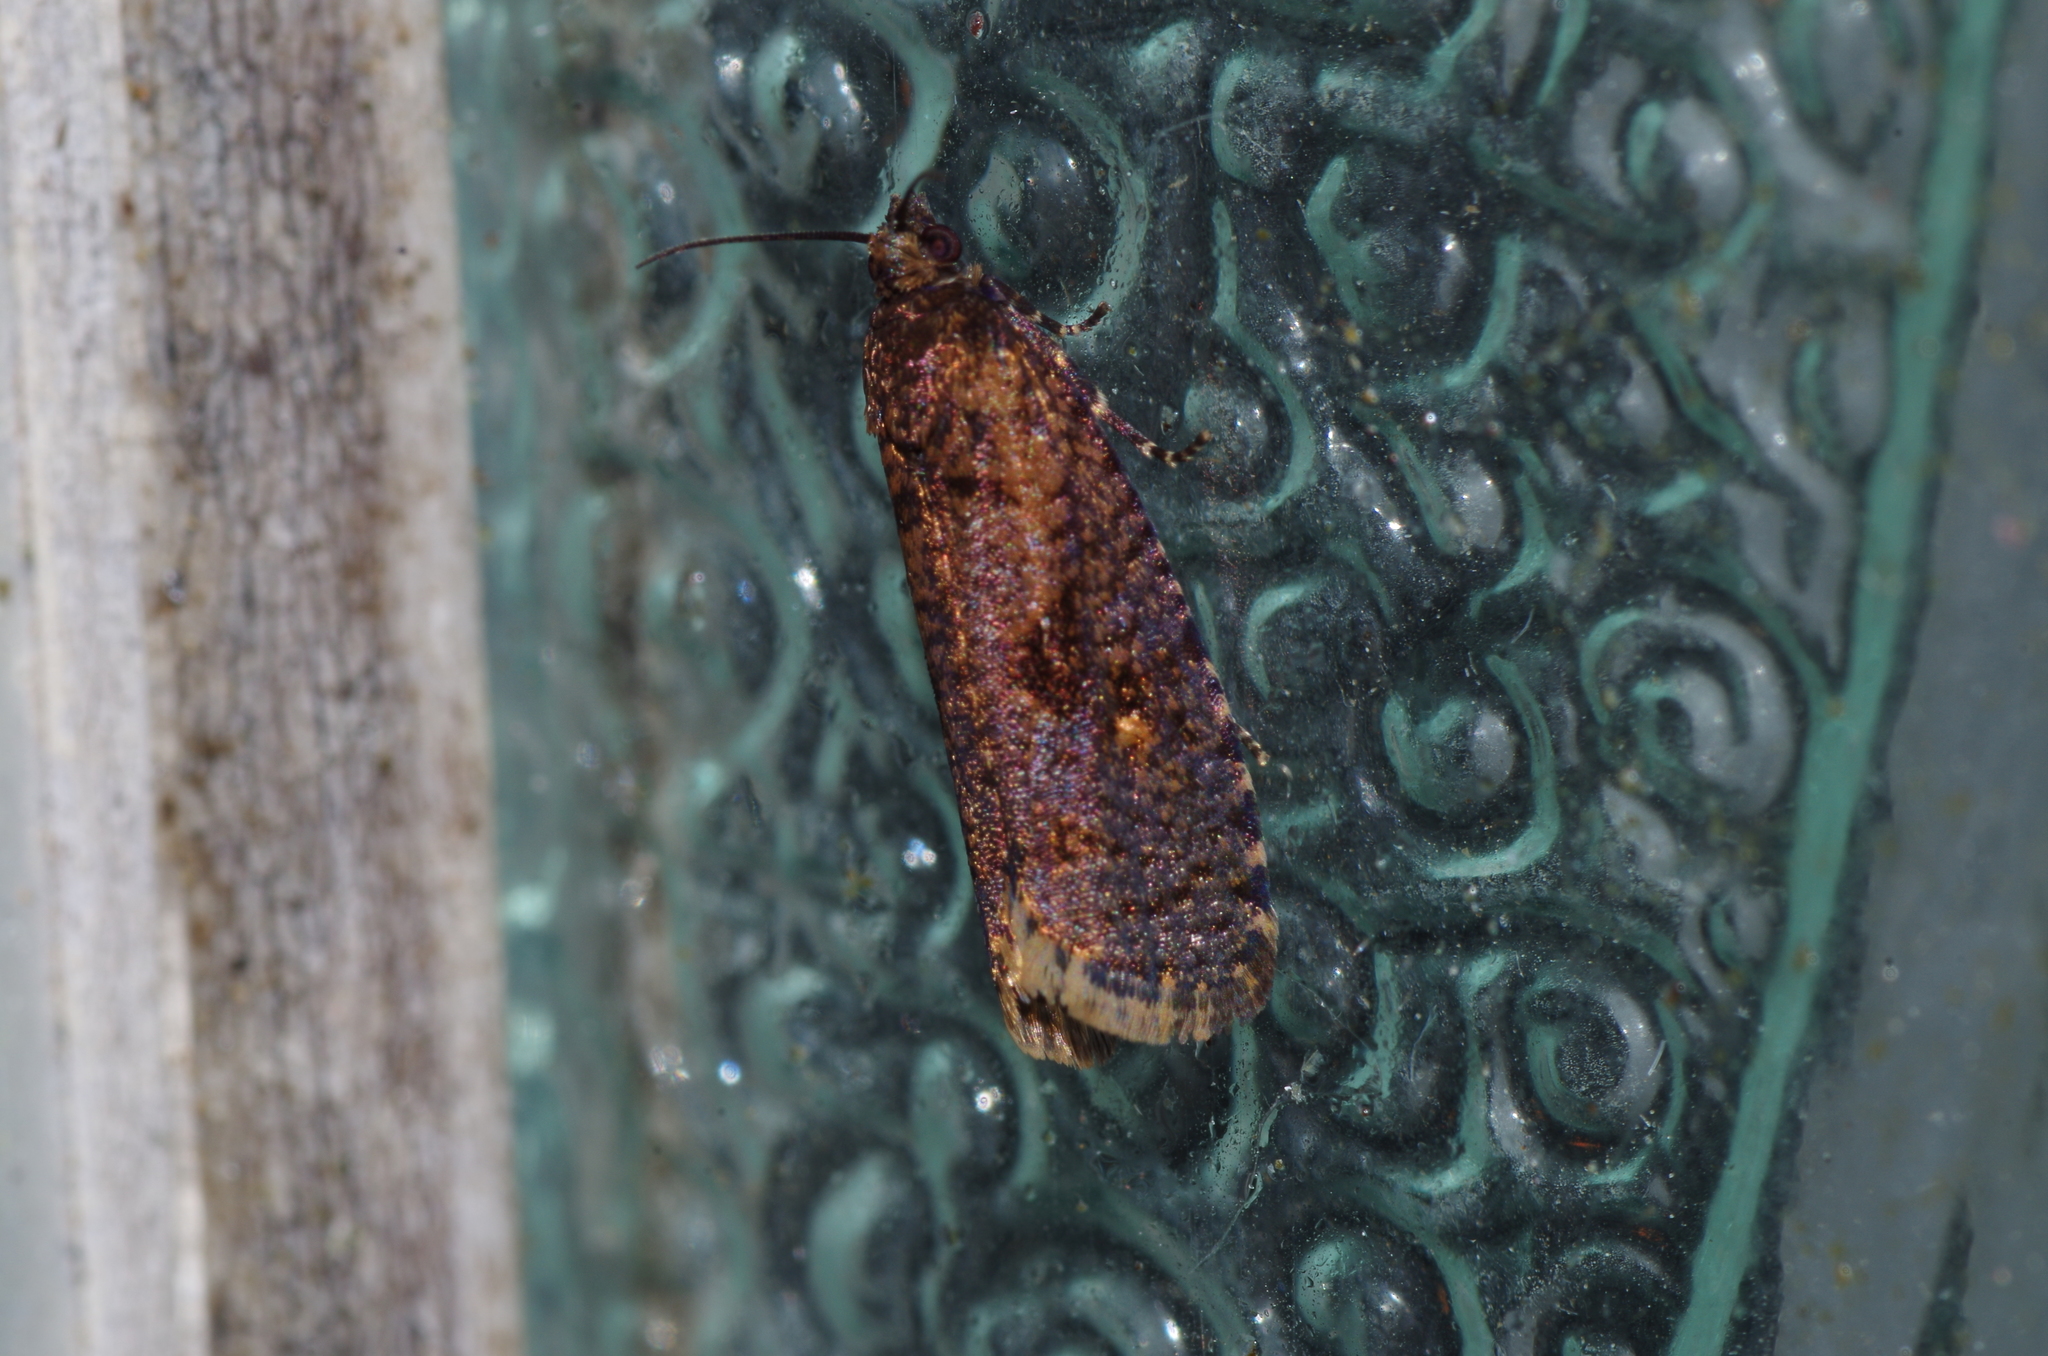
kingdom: Animalia
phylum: Arthropoda
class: Insecta
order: Lepidoptera
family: Tortricidae
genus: Cryptaspasma
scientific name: Cryptaspasma angulicostana
